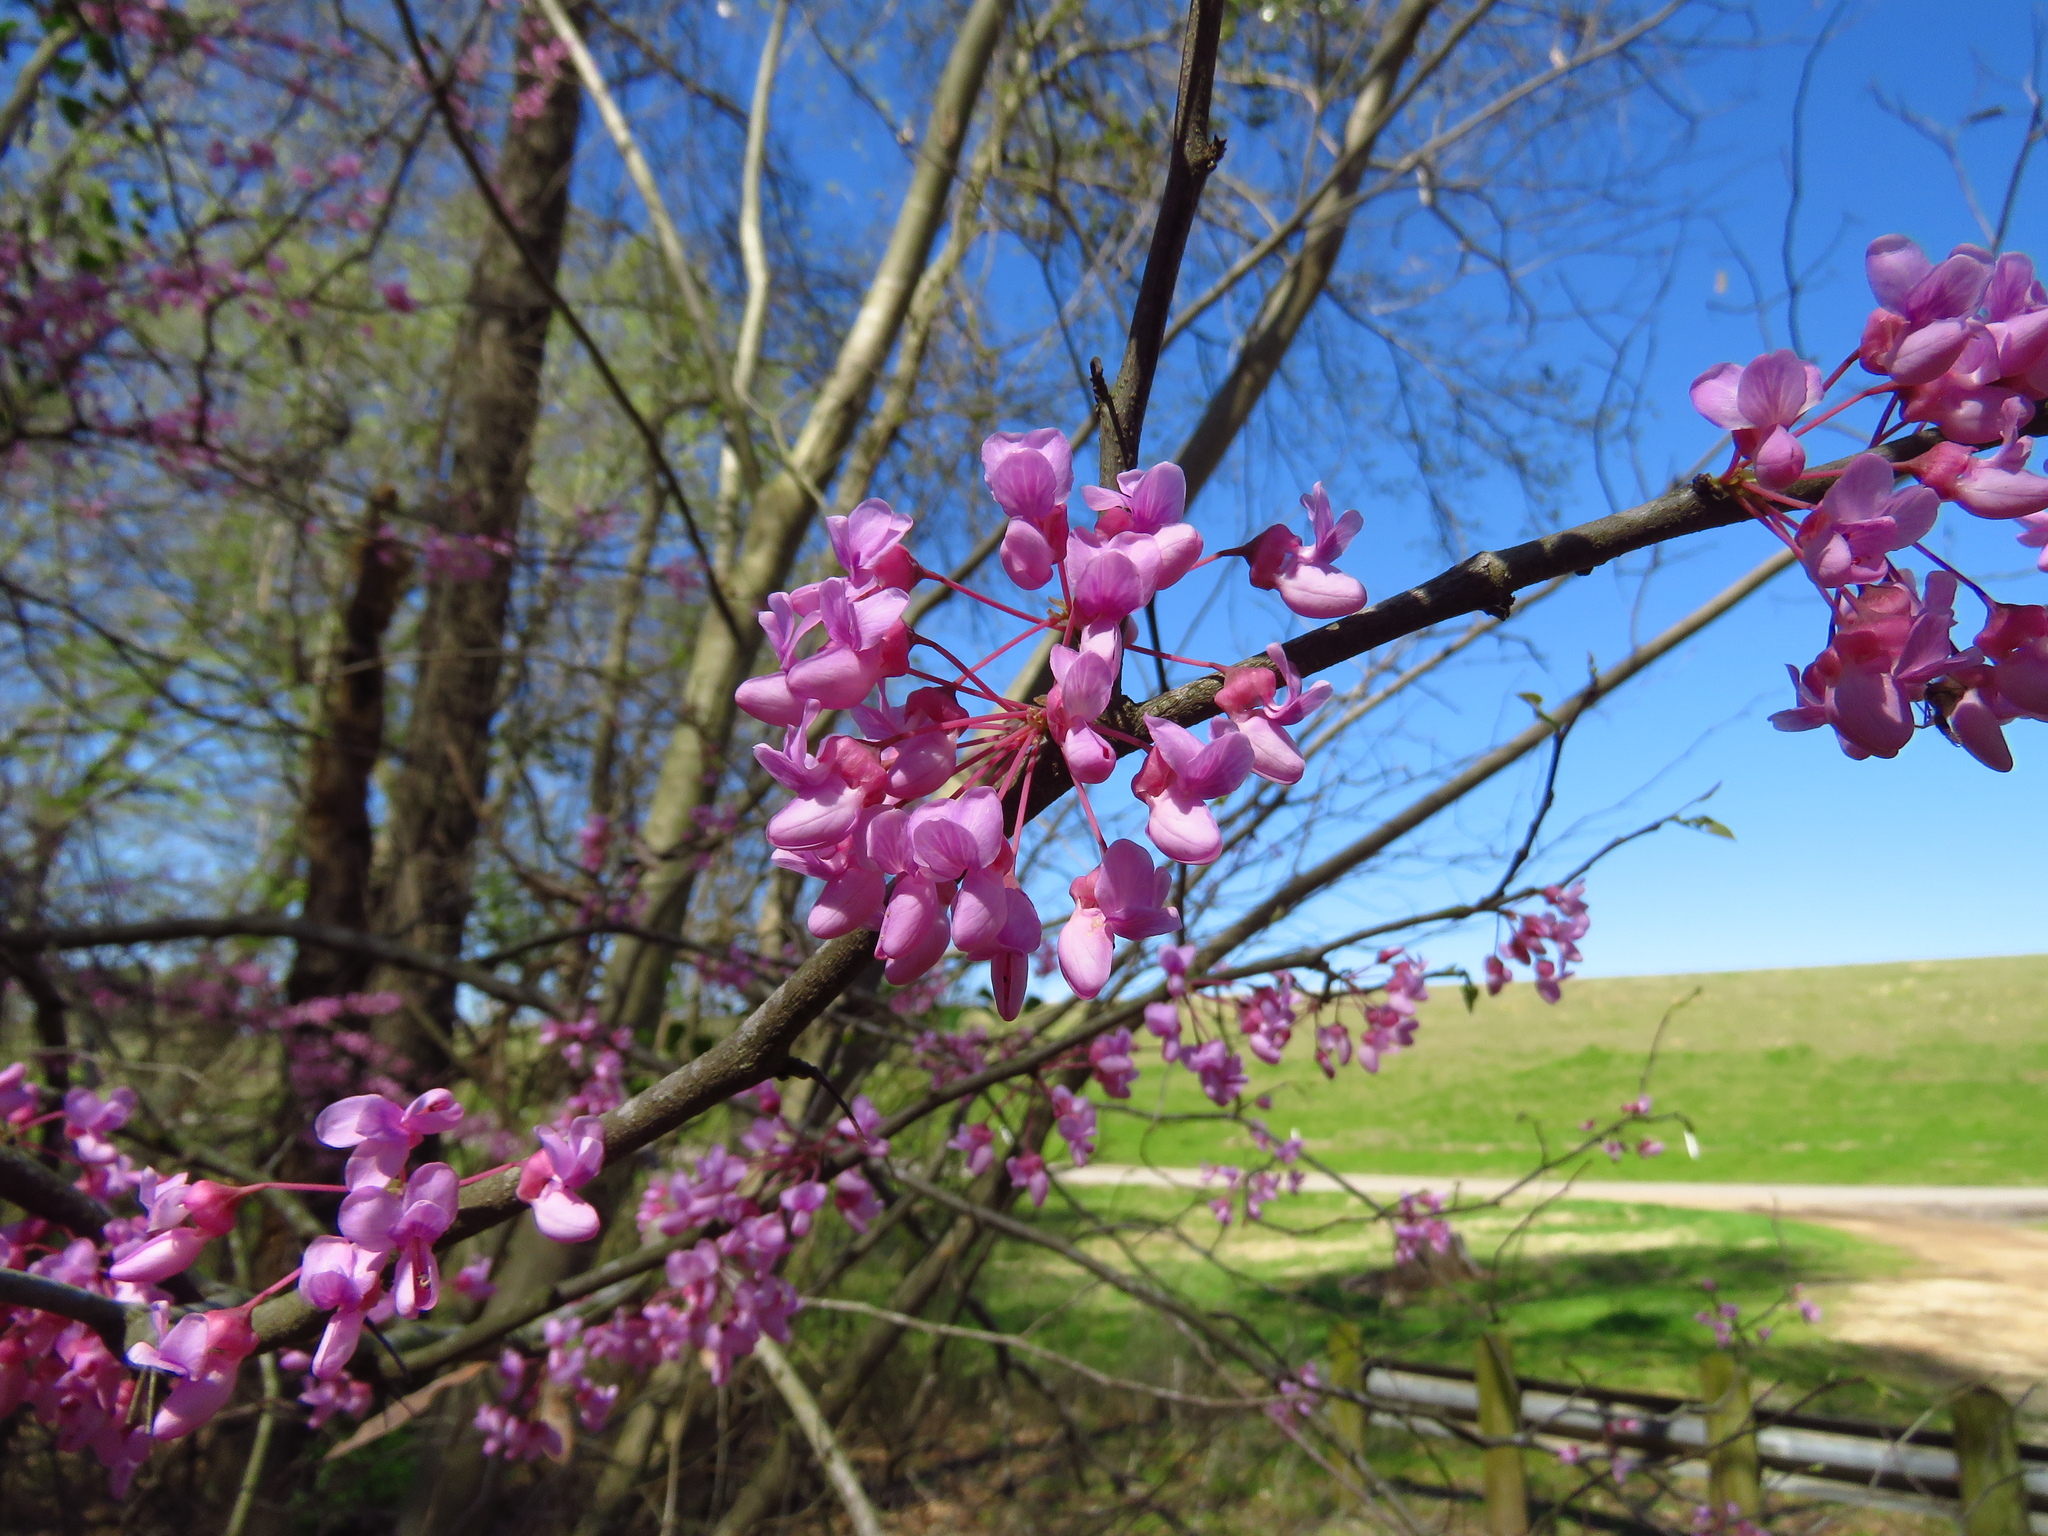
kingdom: Plantae
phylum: Tracheophyta
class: Magnoliopsida
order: Fabales
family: Fabaceae
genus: Cercis
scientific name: Cercis canadensis
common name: Eastern redbud
